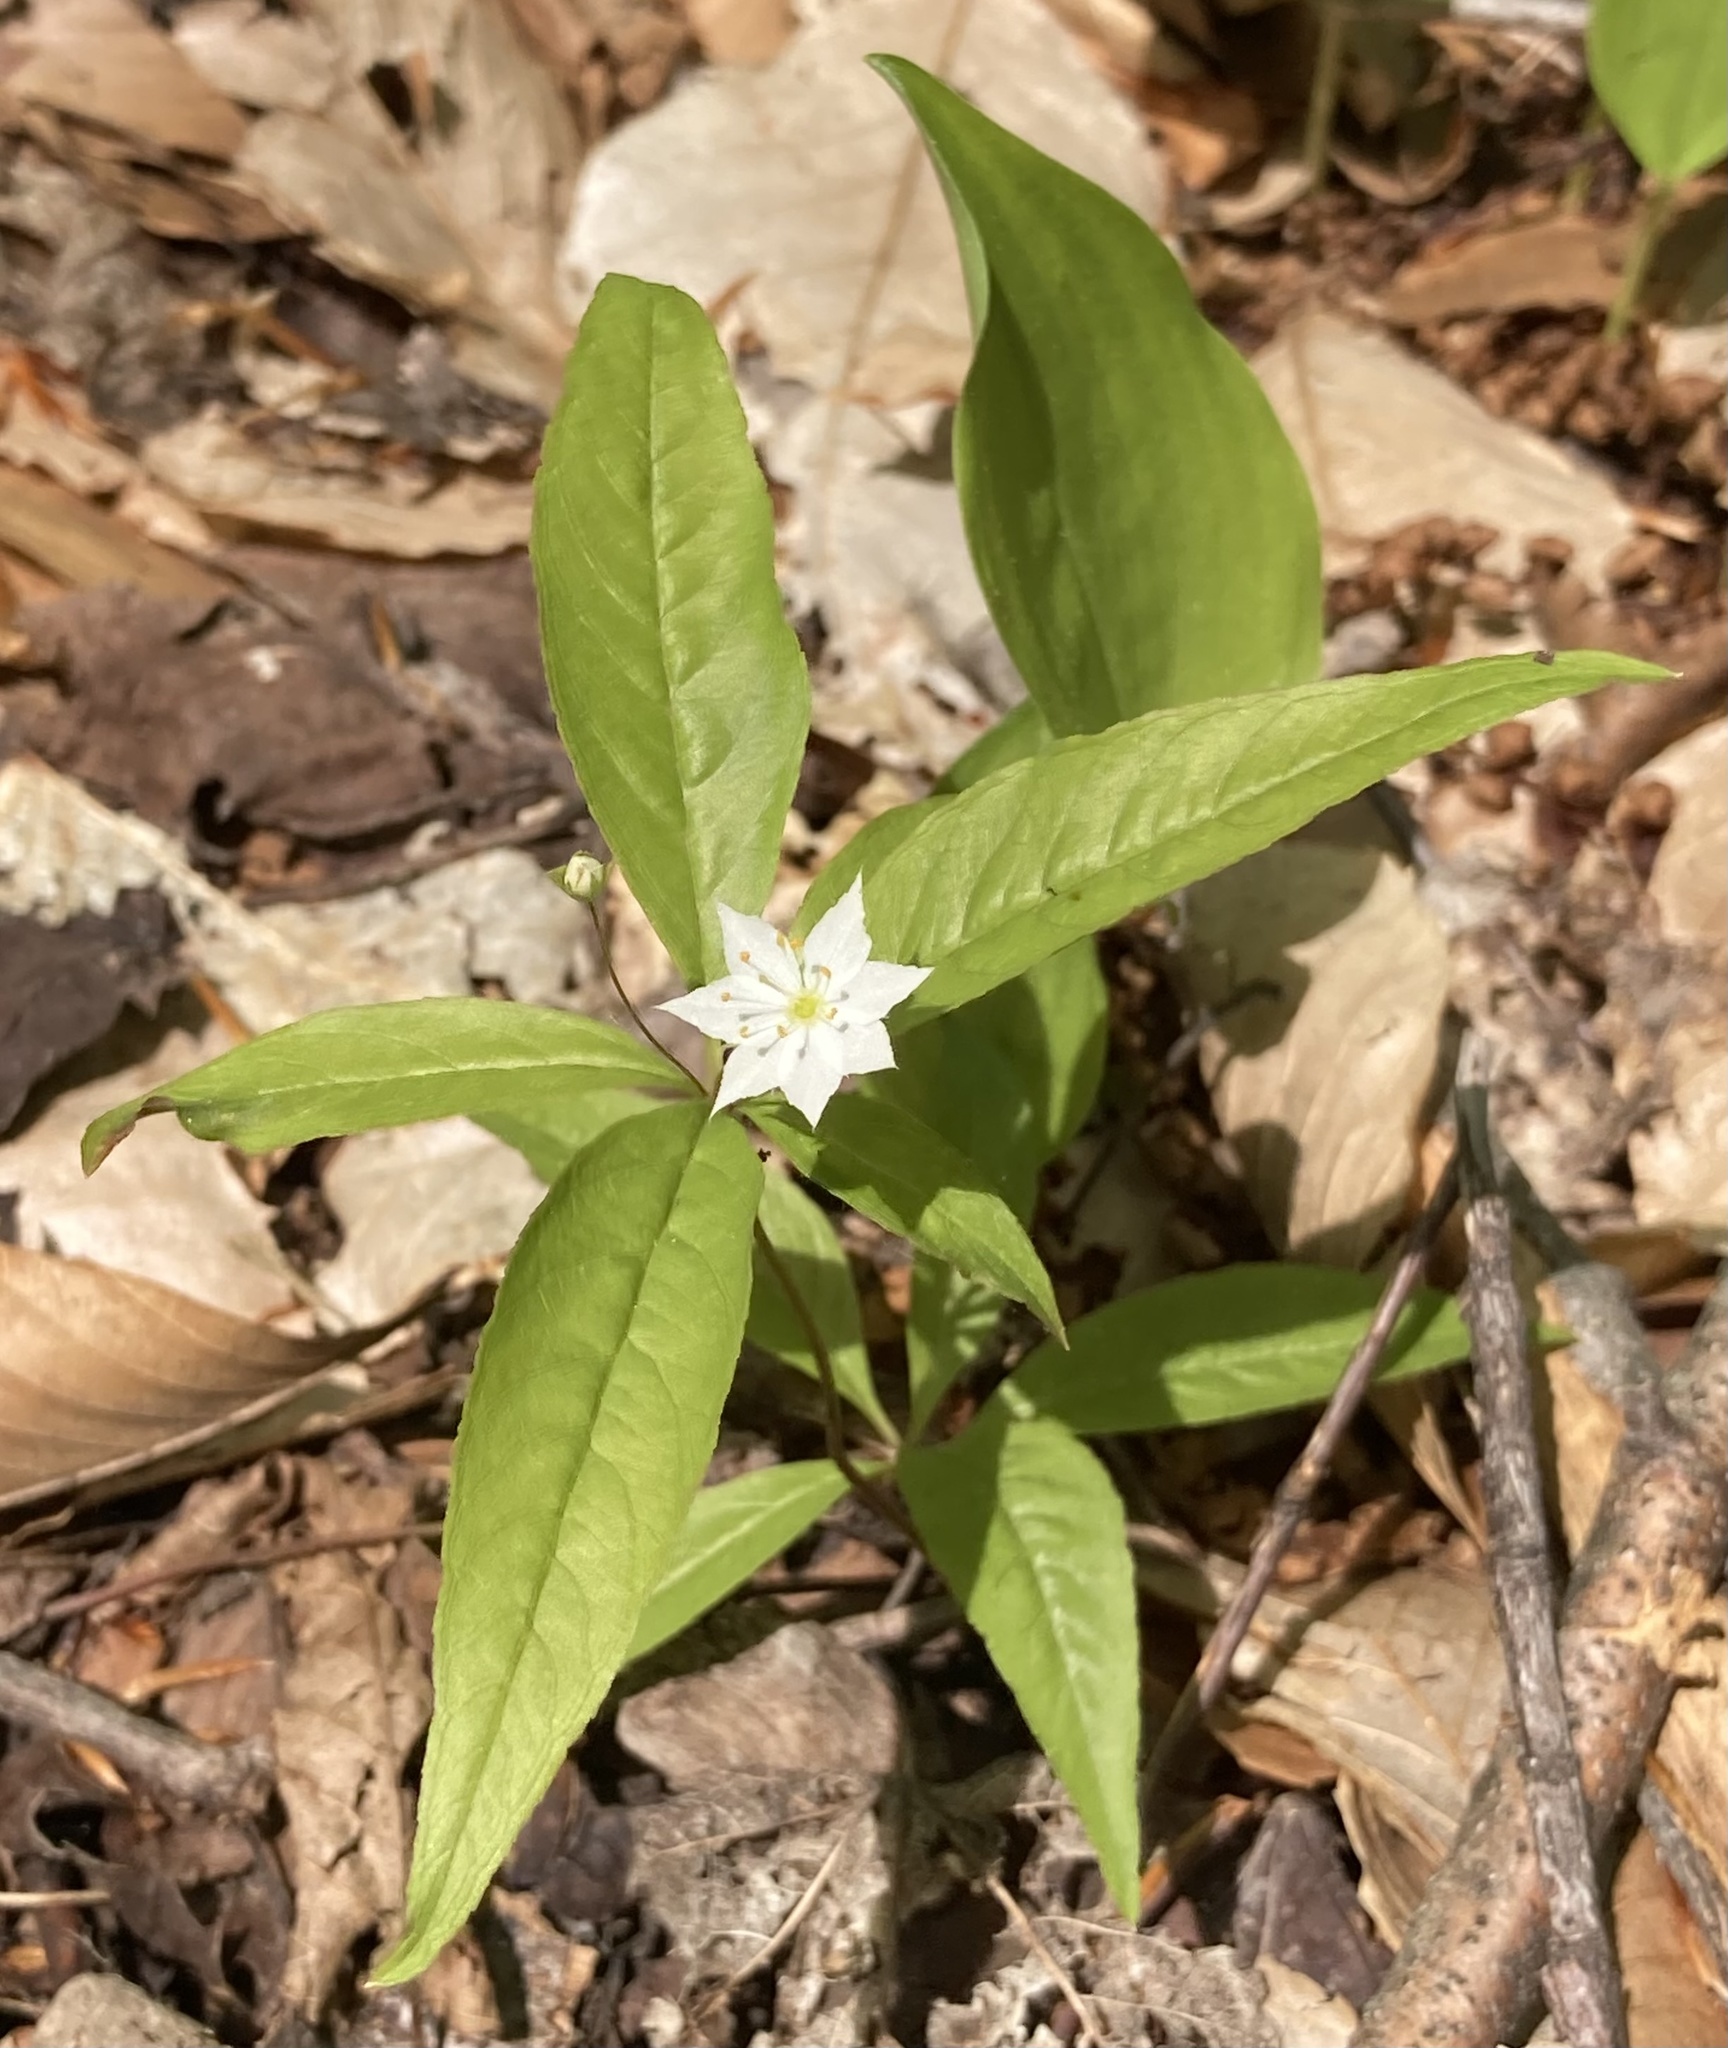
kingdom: Plantae
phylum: Tracheophyta
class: Magnoliopsida
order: Ericales
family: Primulaceae
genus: Lysimachia
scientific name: Lysimachia borealis
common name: American starflower
